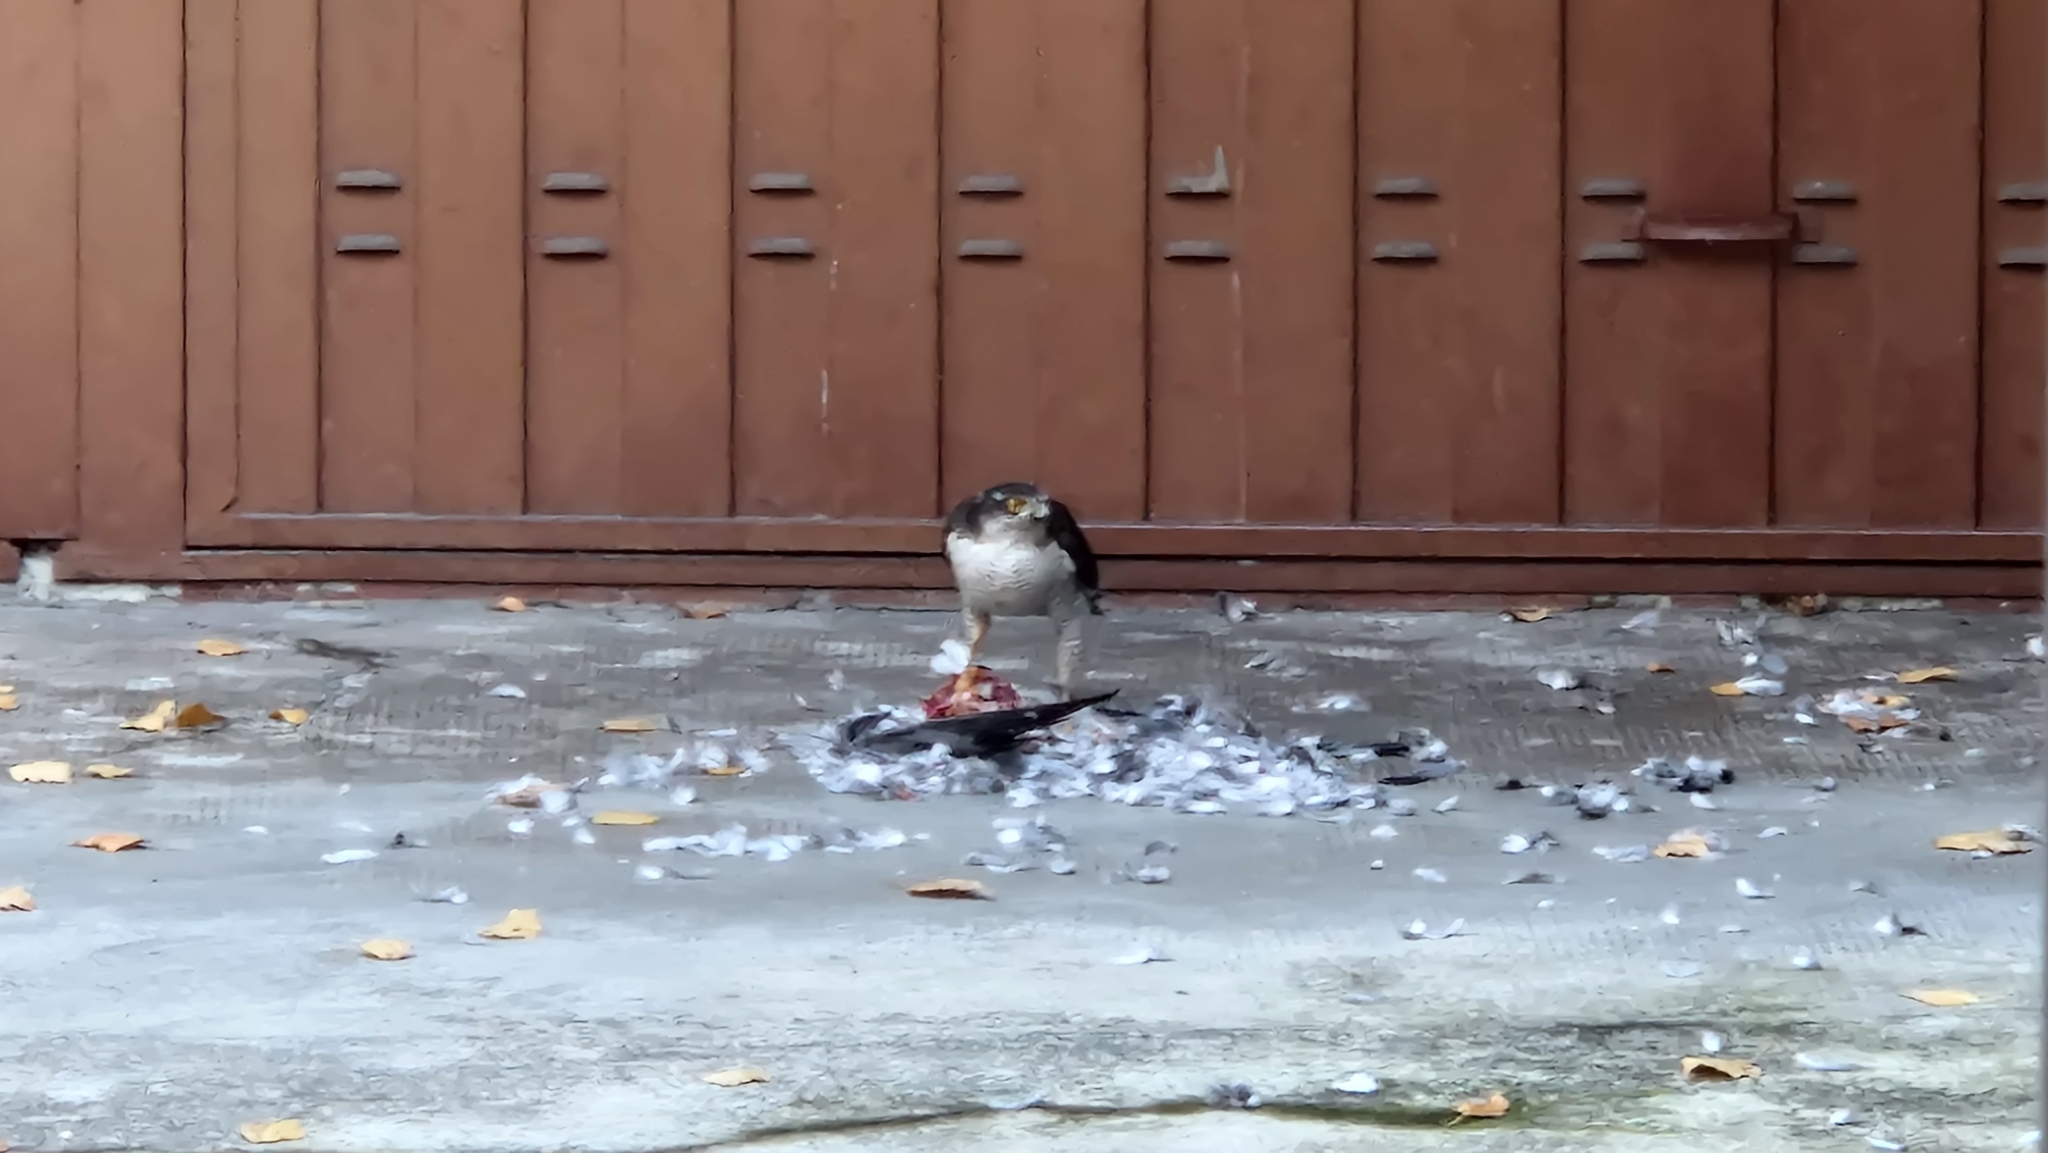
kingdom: Animalia
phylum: Chordata
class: Aves
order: Accipitriformes
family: Accipitridae
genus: Accipiter
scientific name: Accipiter nisus
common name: Eurasian sparrowhawk
